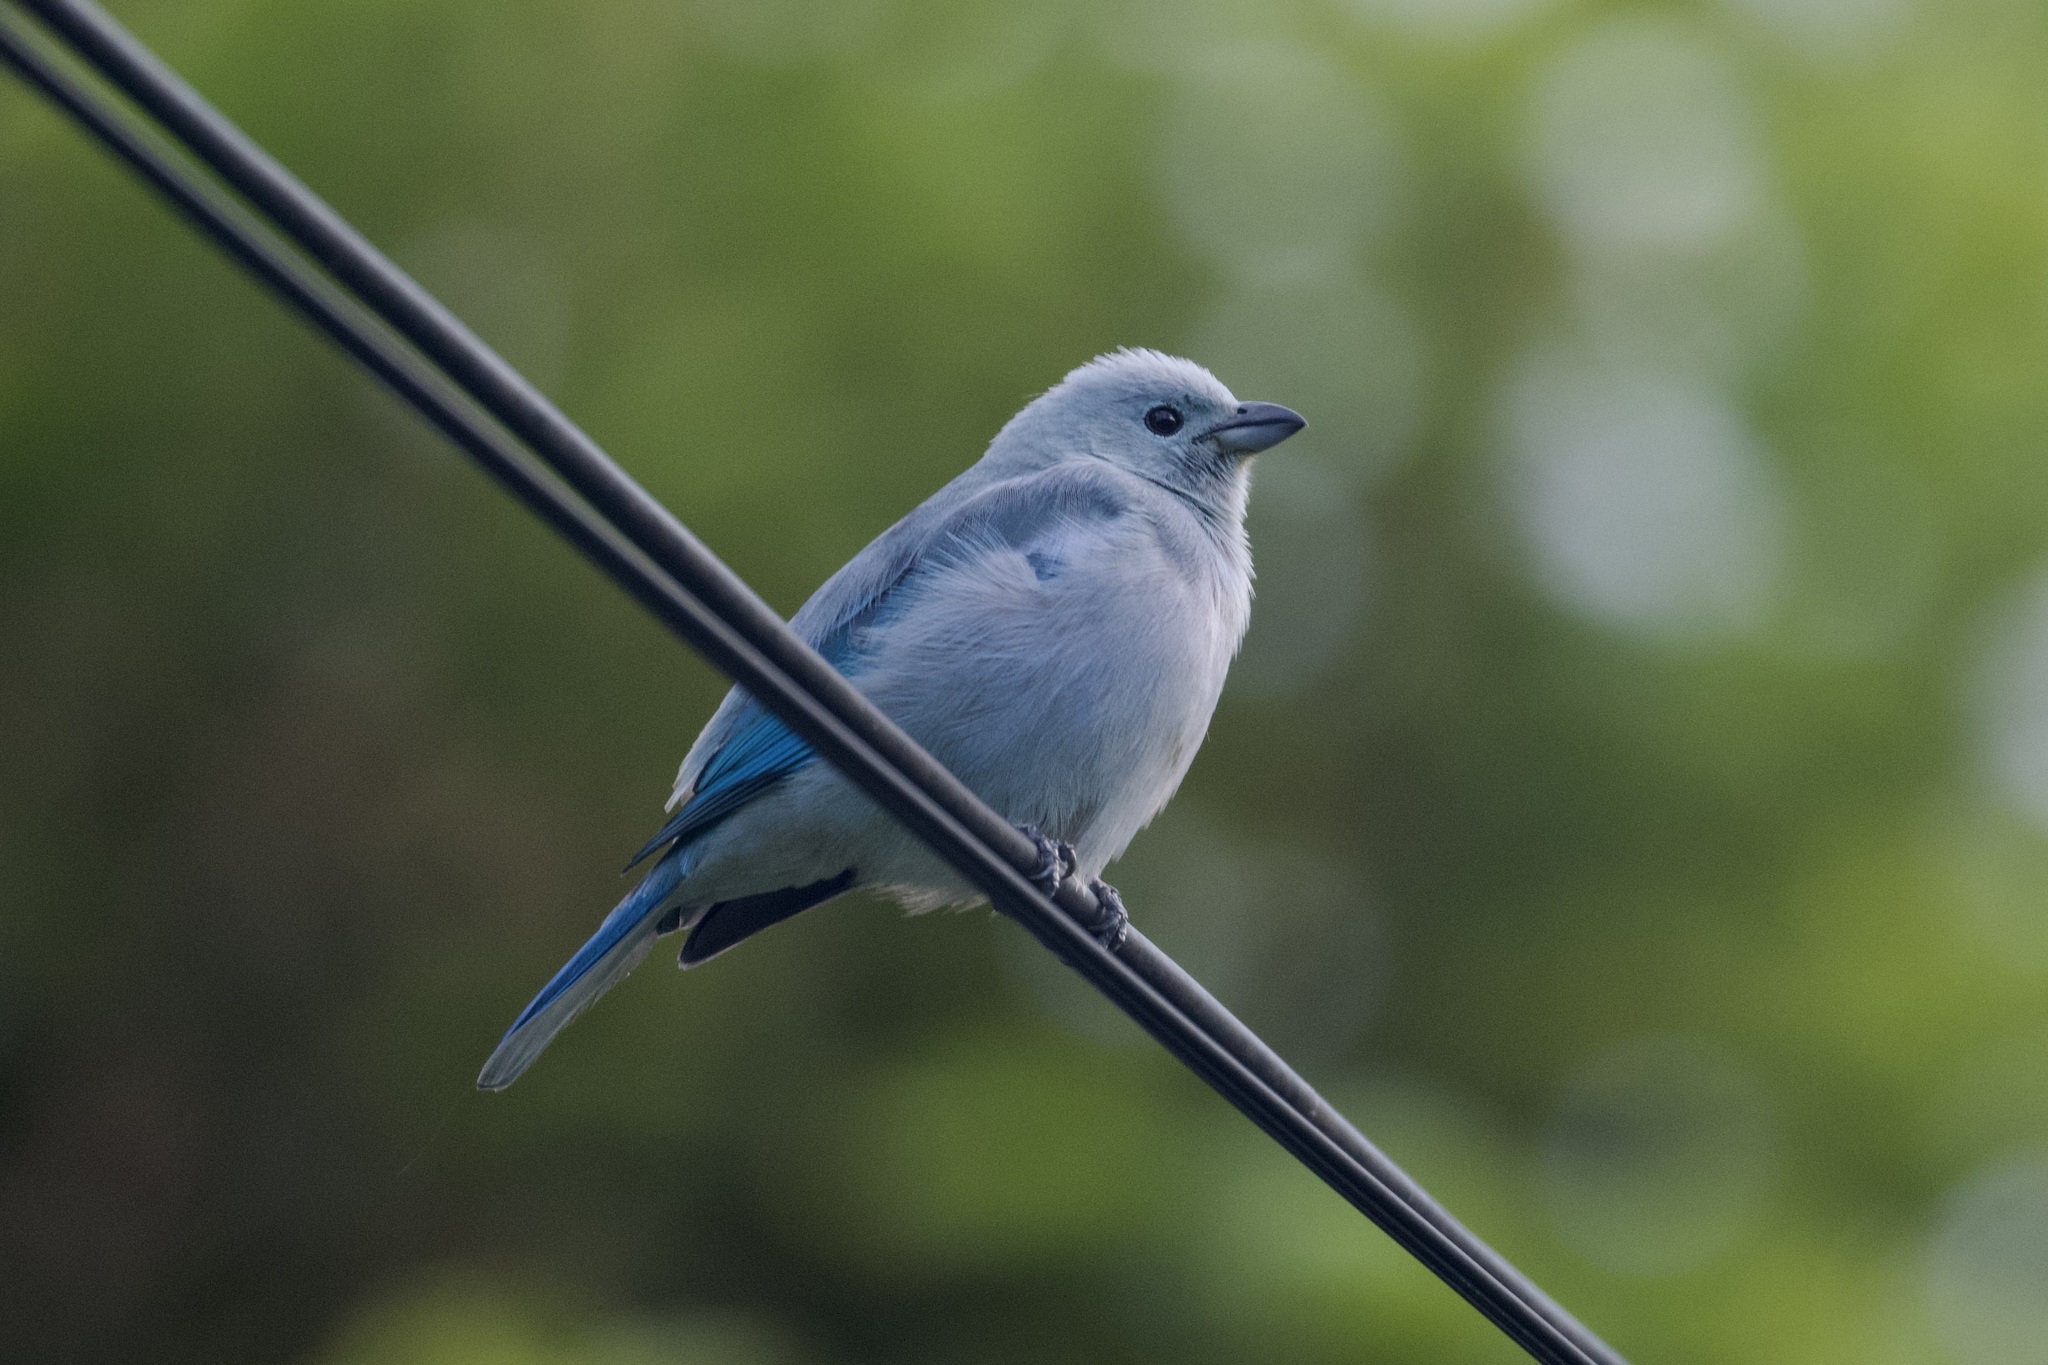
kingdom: Animalia
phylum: Chordata
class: Aves
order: Passeriformes
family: Thraupidae
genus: Thraupis
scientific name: Thraupis episcopus
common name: Blue-grey tanager
